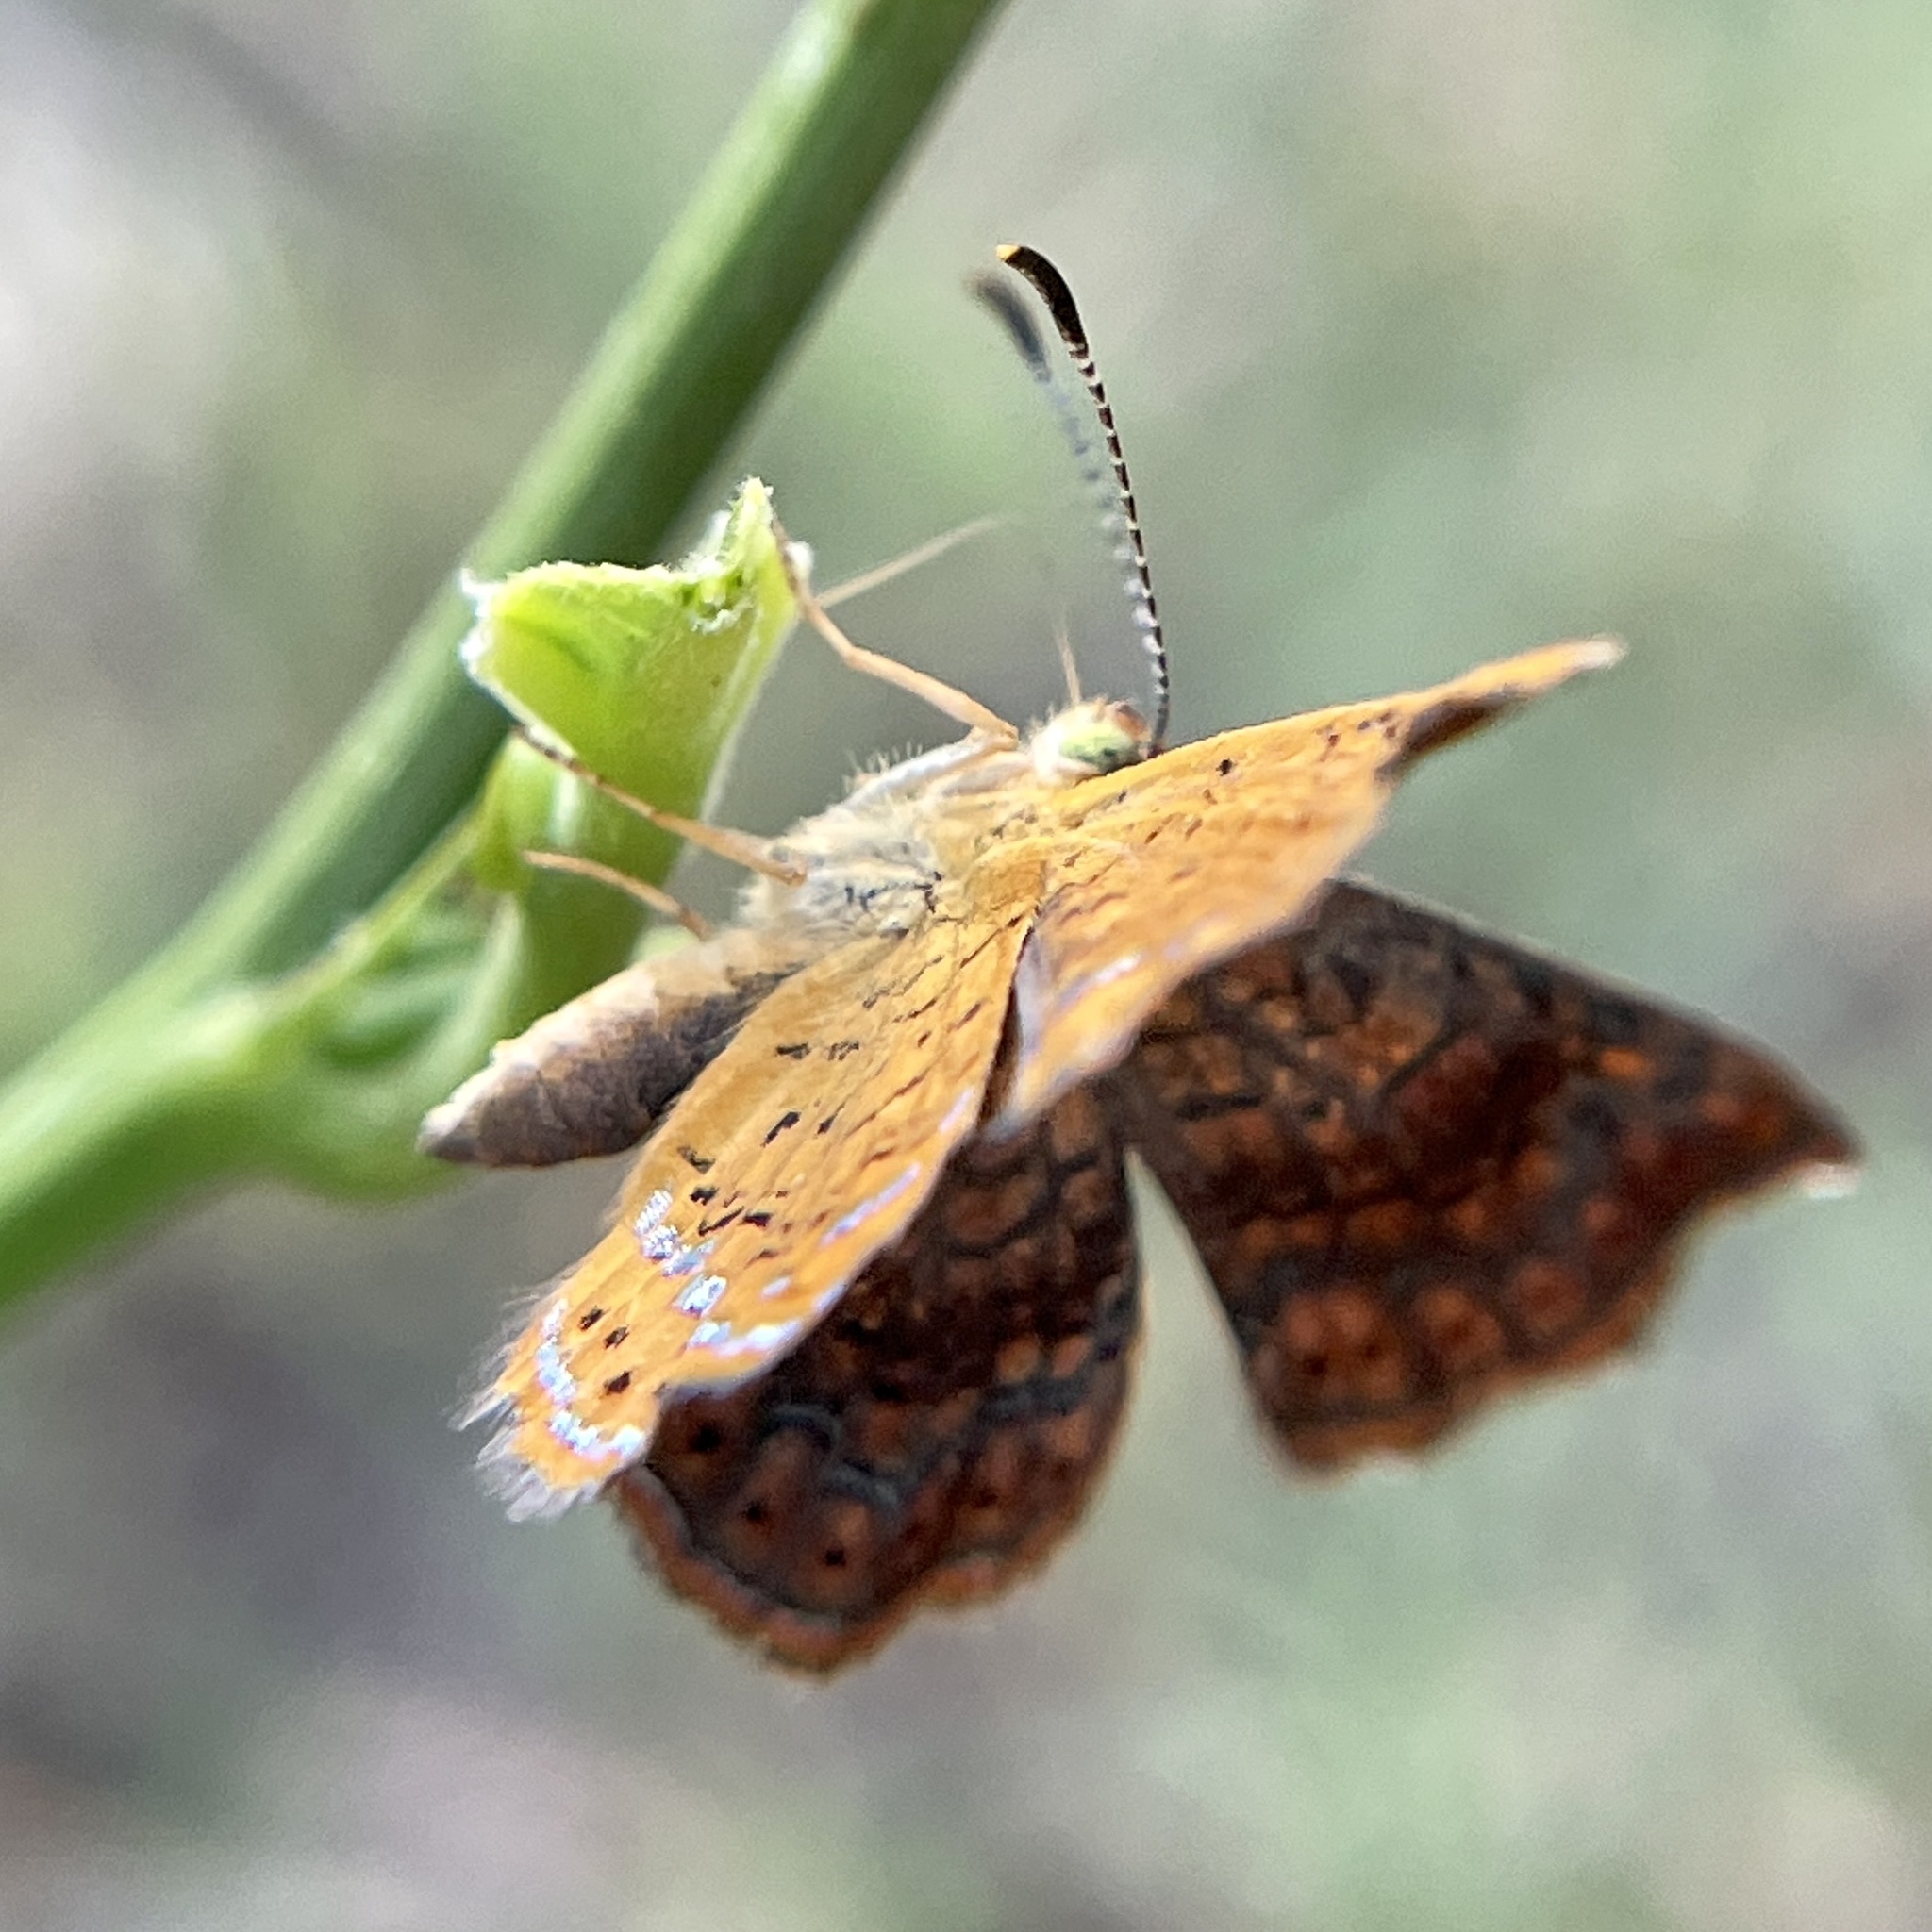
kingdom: Animalia
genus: Calephelis
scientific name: Calephelis perditalis
